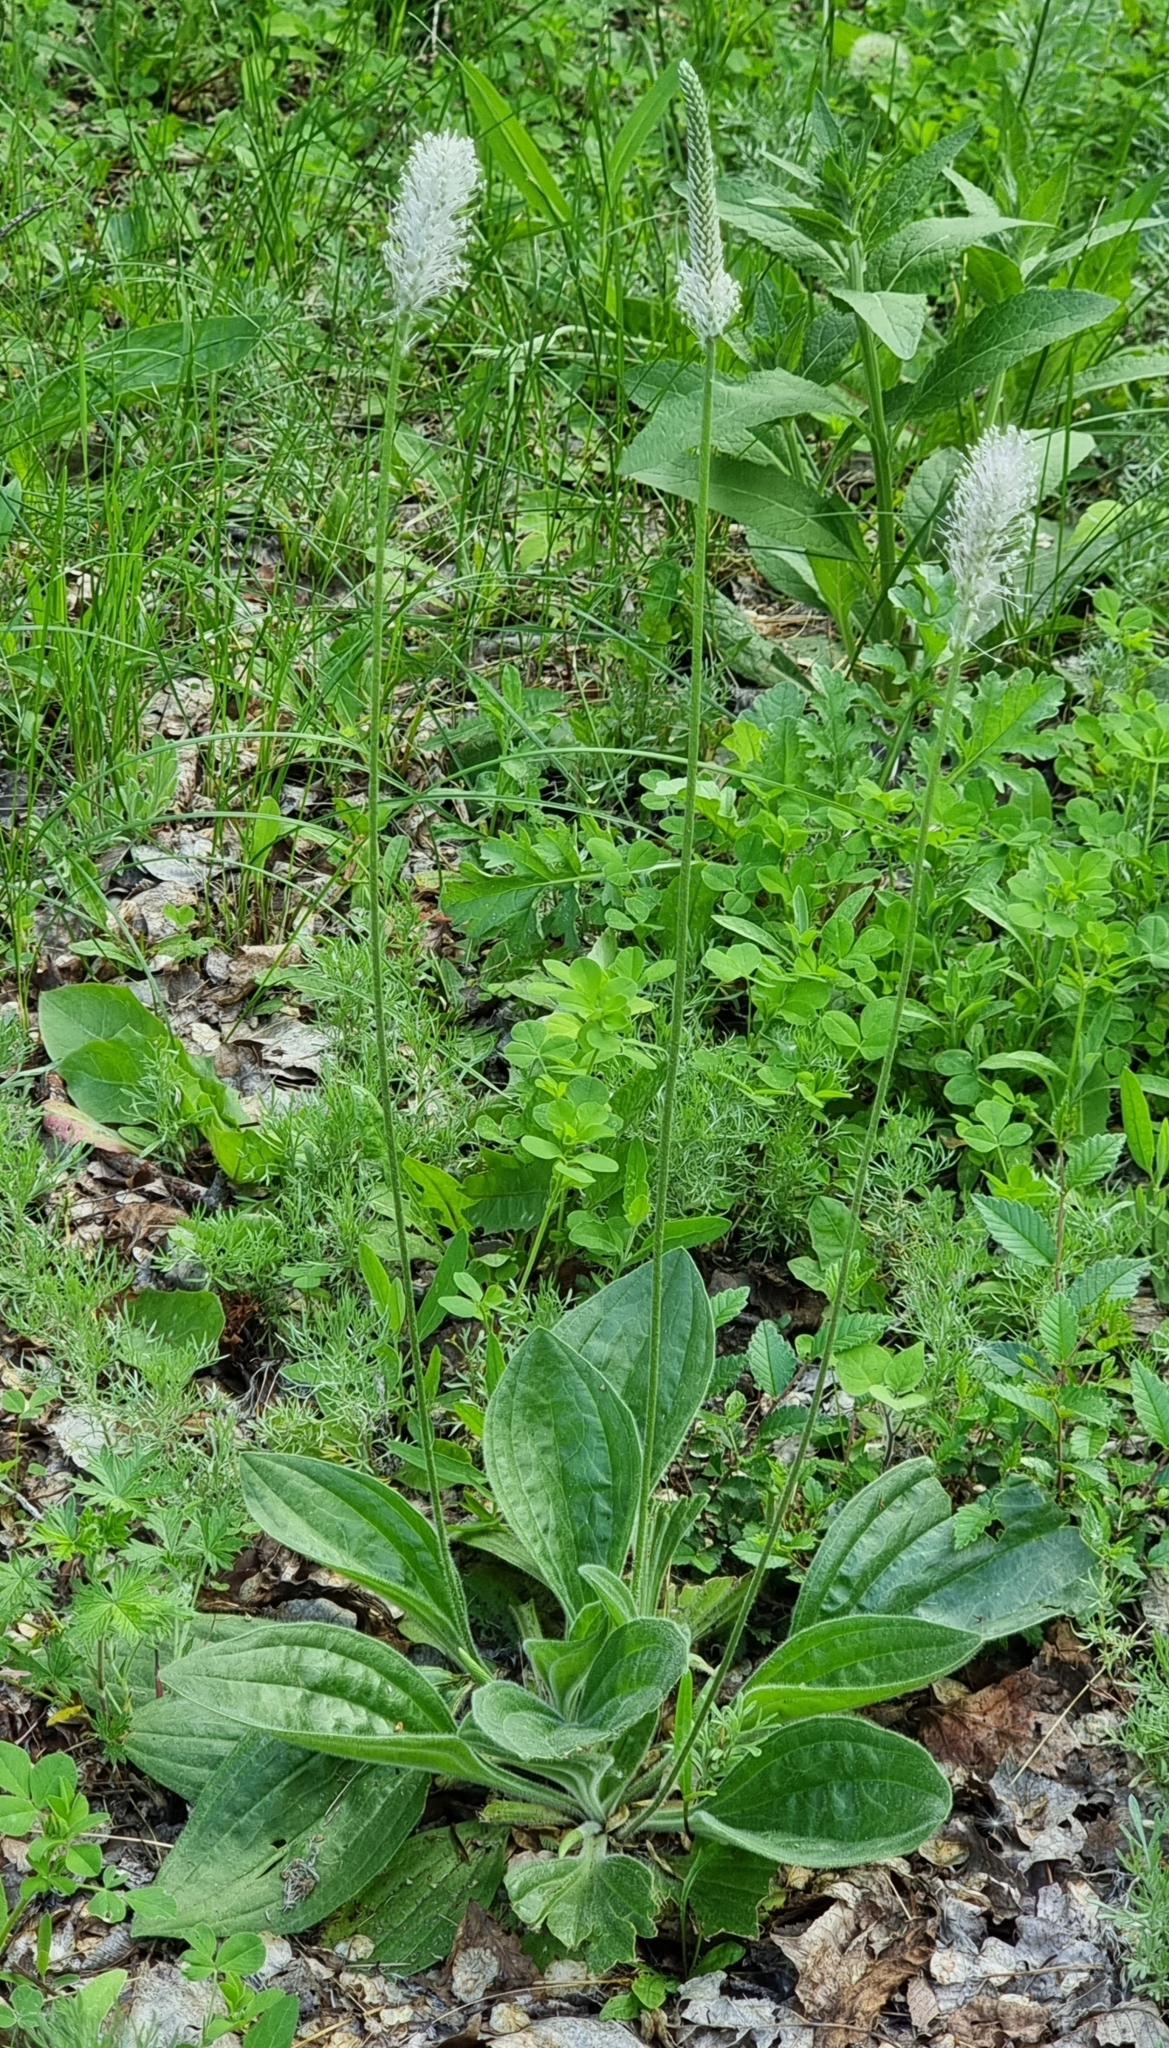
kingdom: Plantae
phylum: Tracheophyta
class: Magnoliopsida
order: Lamiales
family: Plantaginaceae
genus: Plantago
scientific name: Plantago urvillei
